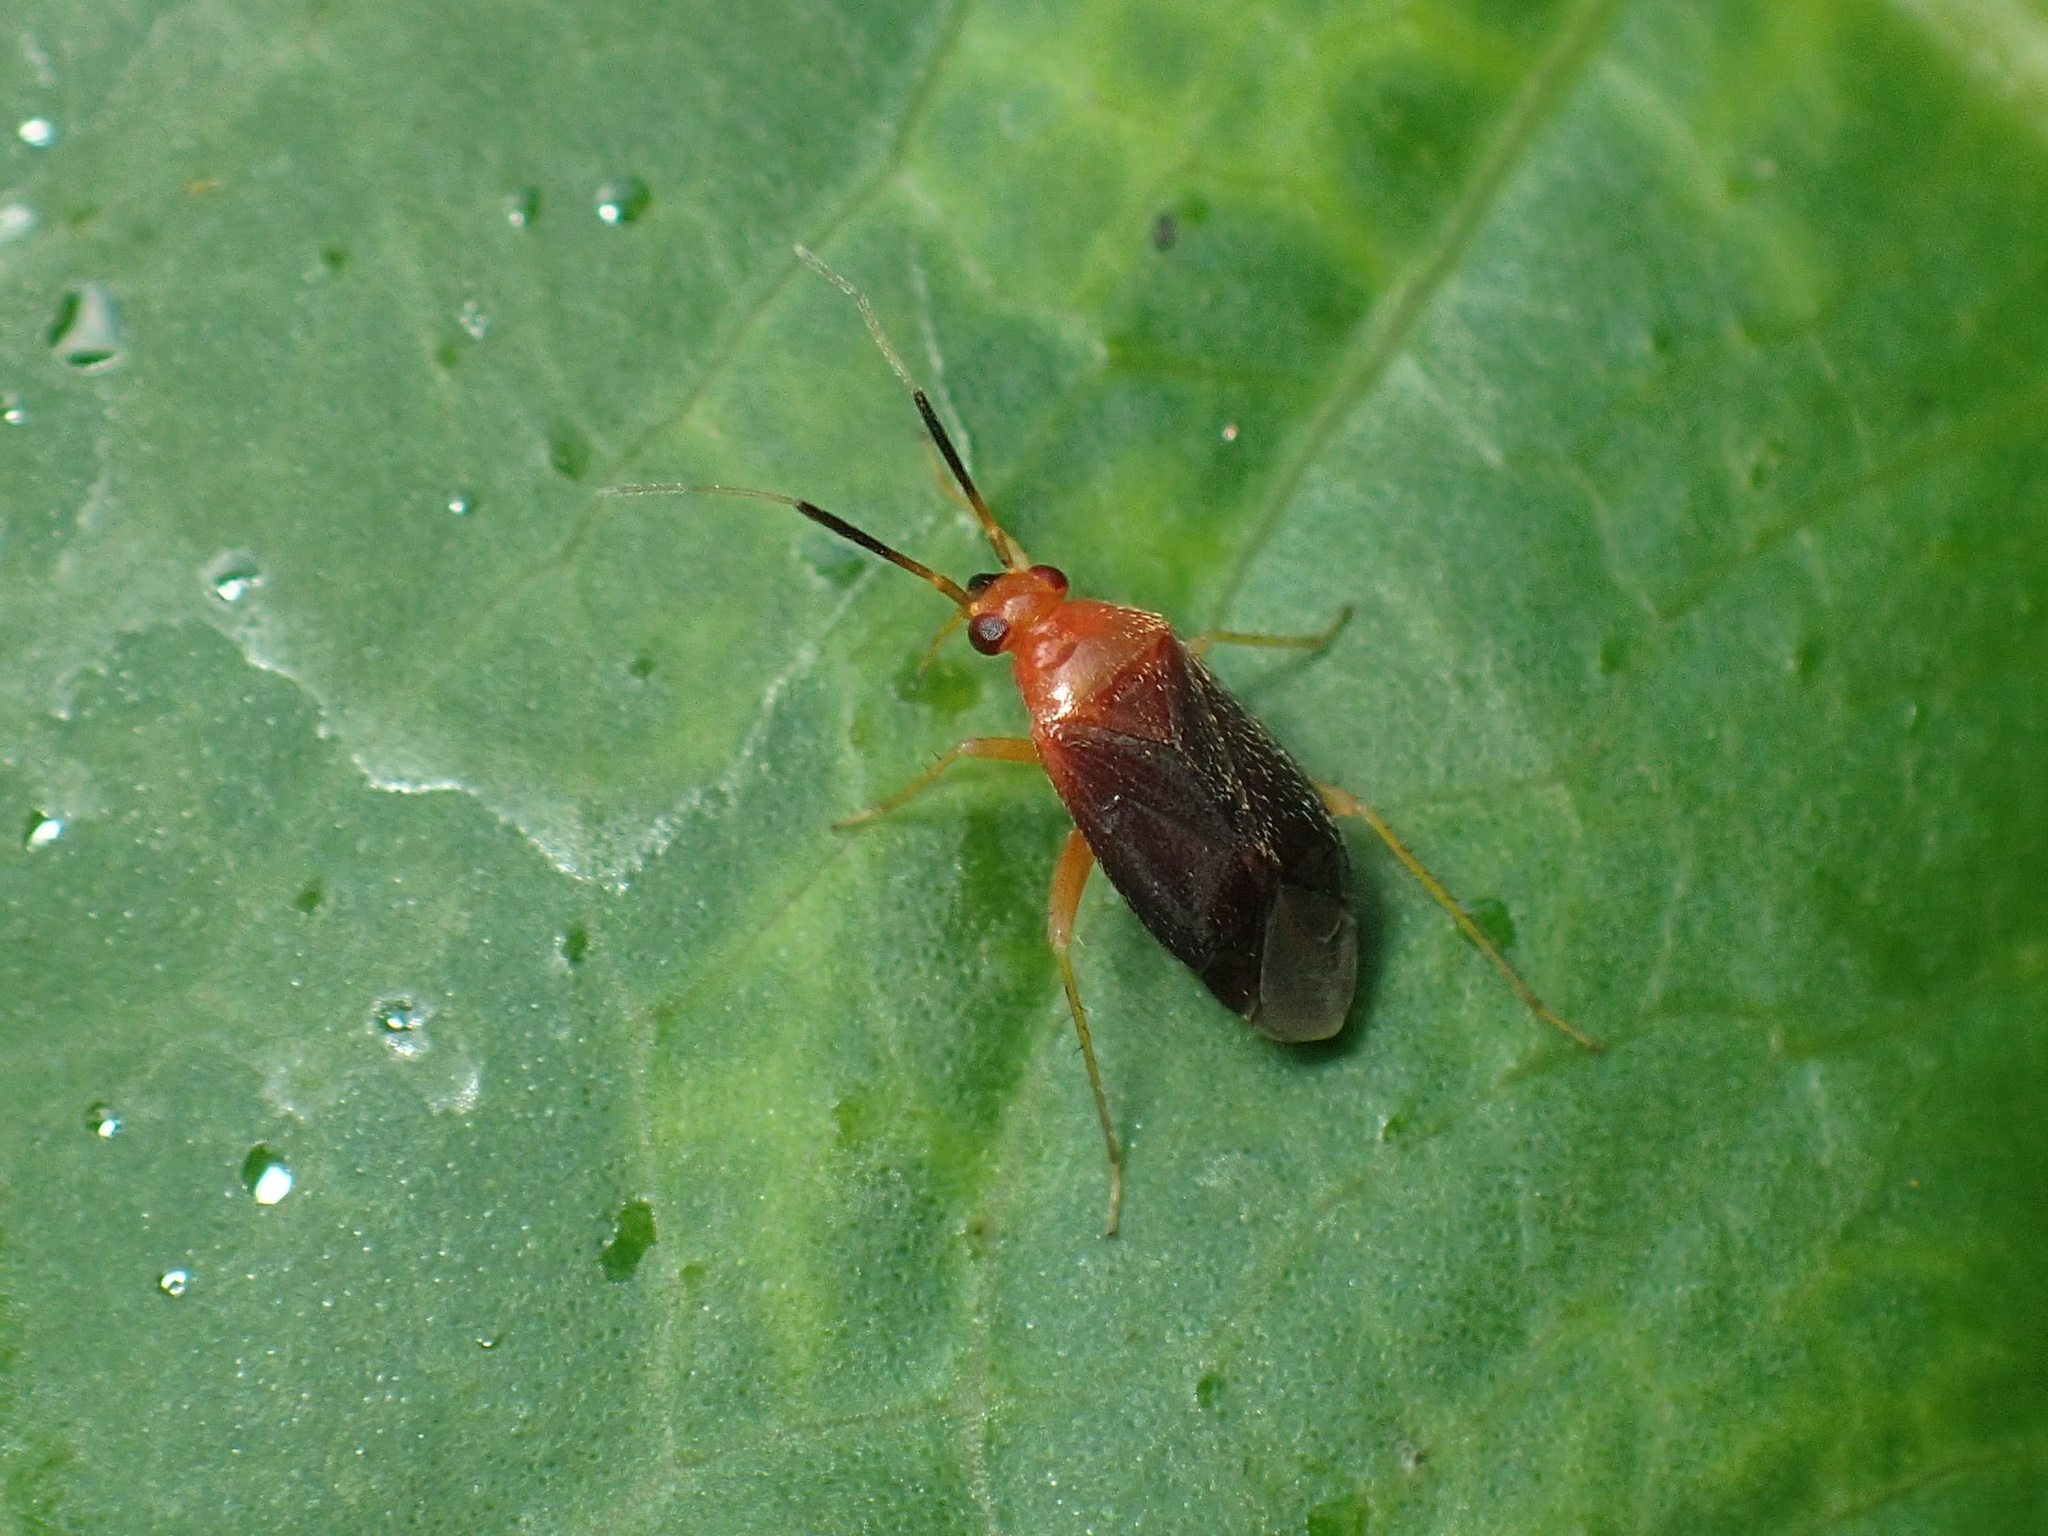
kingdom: Animalia
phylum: Arthropoda
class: Insecta
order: Hemiptera
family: Miridae
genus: Rhinocapsus
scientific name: Rhinocapsus rubricans
